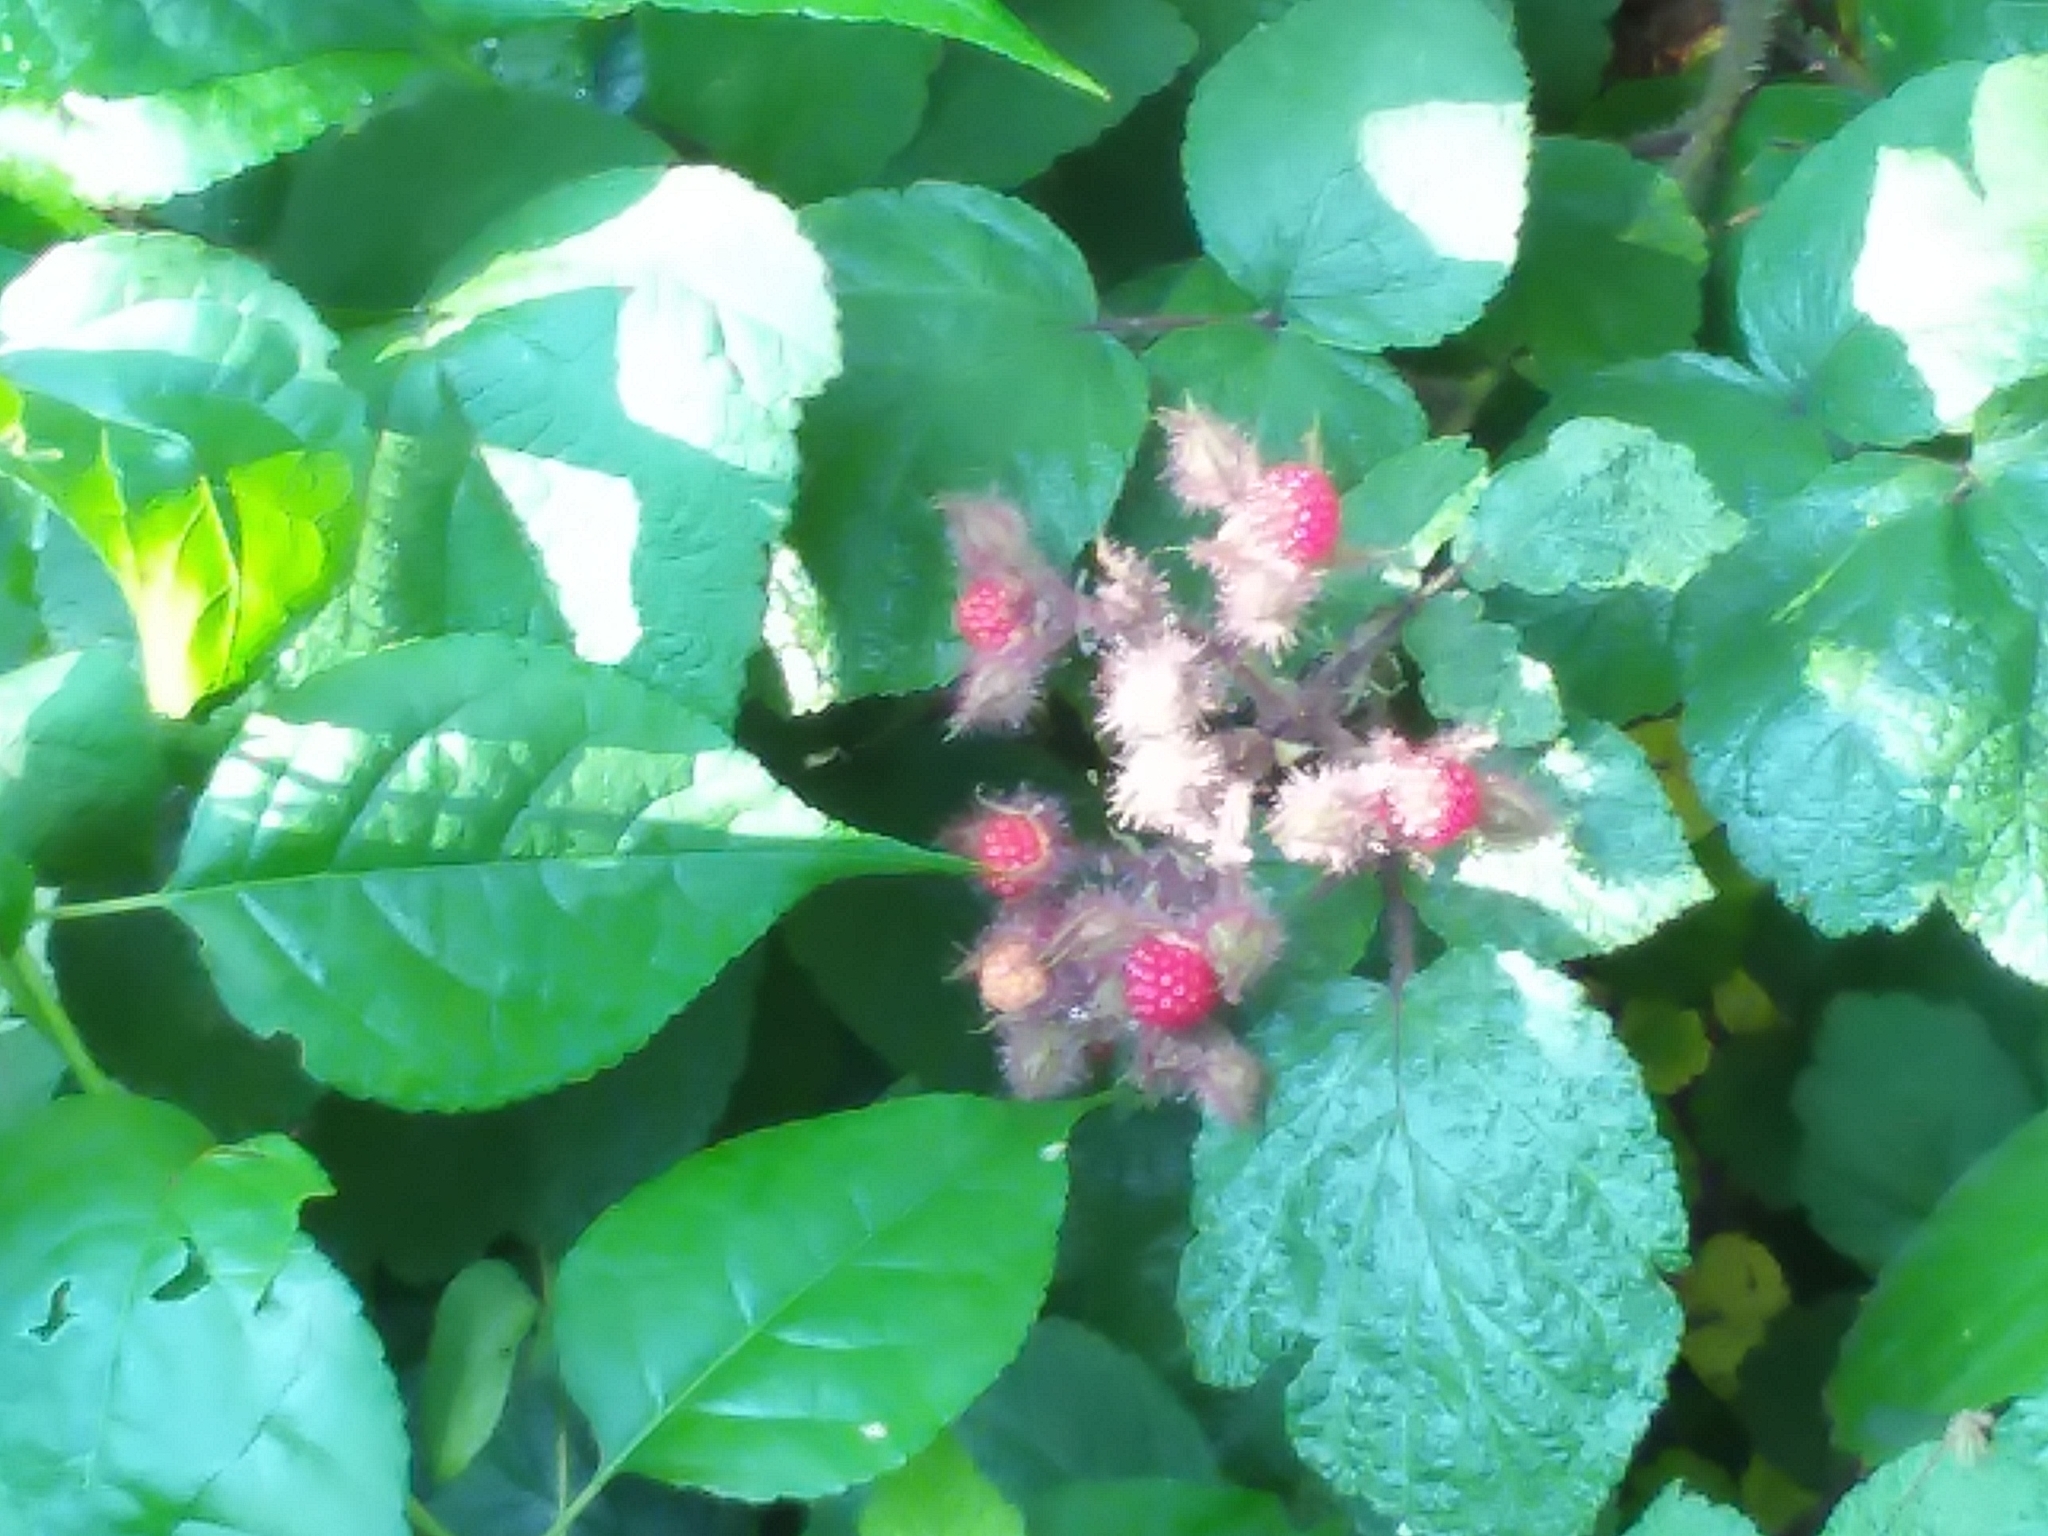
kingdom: Plantae
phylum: Tracheophyta
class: Magnoliopsida
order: Rosales
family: Rosaceae
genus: Rubus
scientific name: Rubus phoenicolasius
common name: Japanese wineberry
